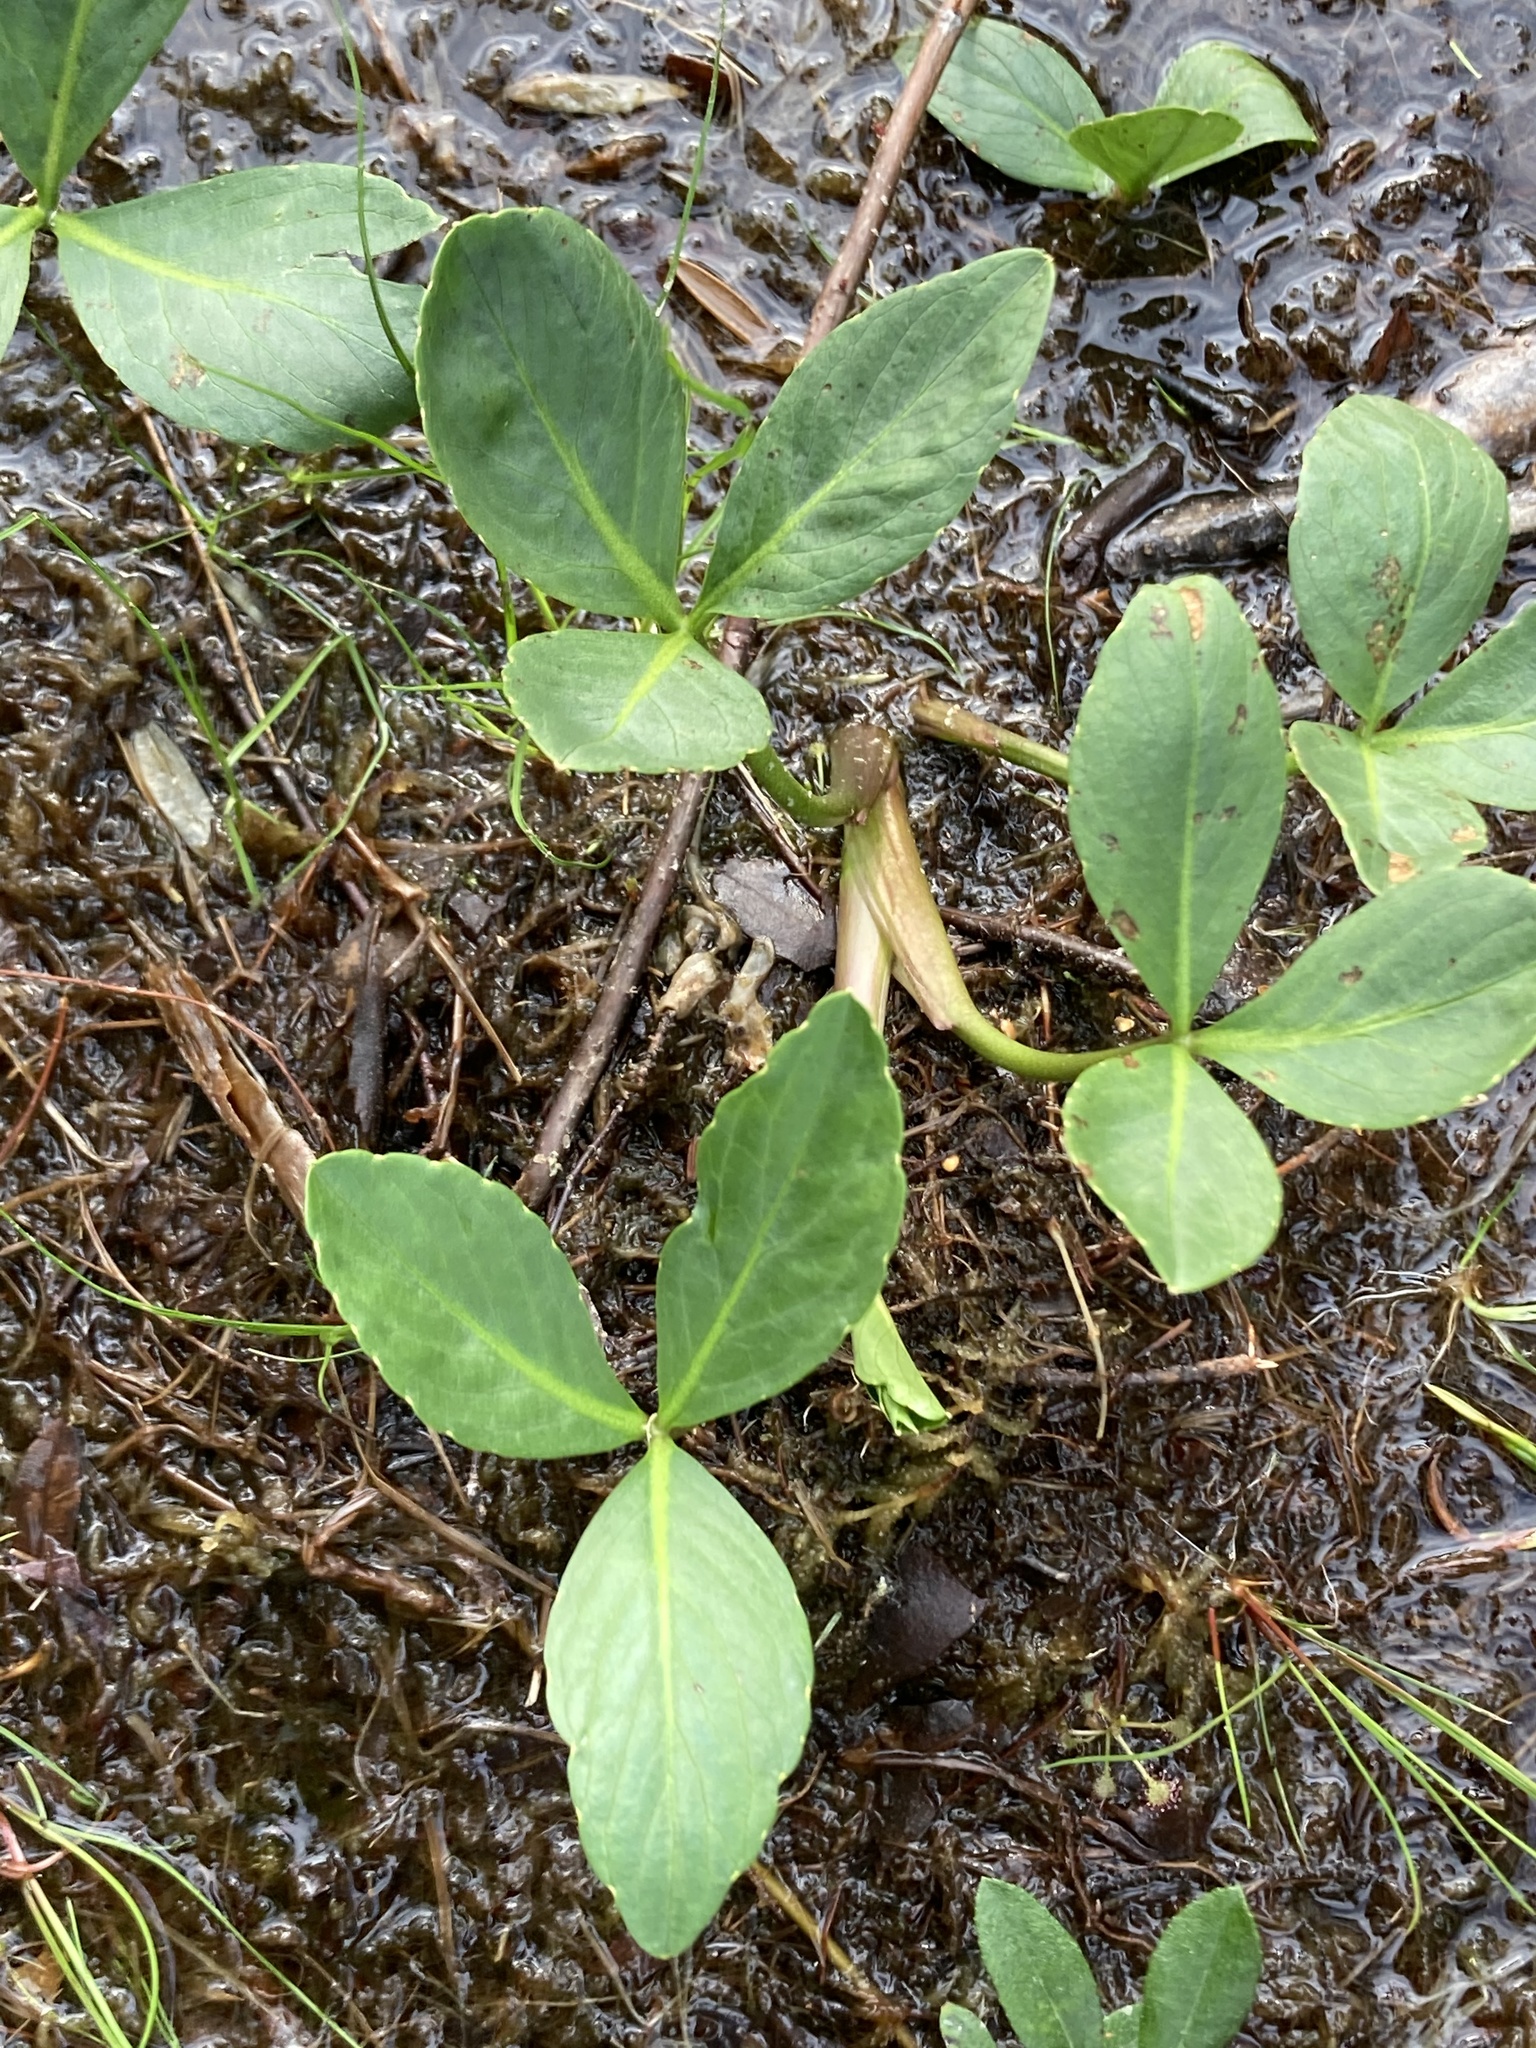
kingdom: Plantae
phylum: Tracheophyta
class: Magnoliopsida
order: Asterales
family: Menyanthaceae
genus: Menyanthes
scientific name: Menyanthes trifoliata
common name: Bogbean
